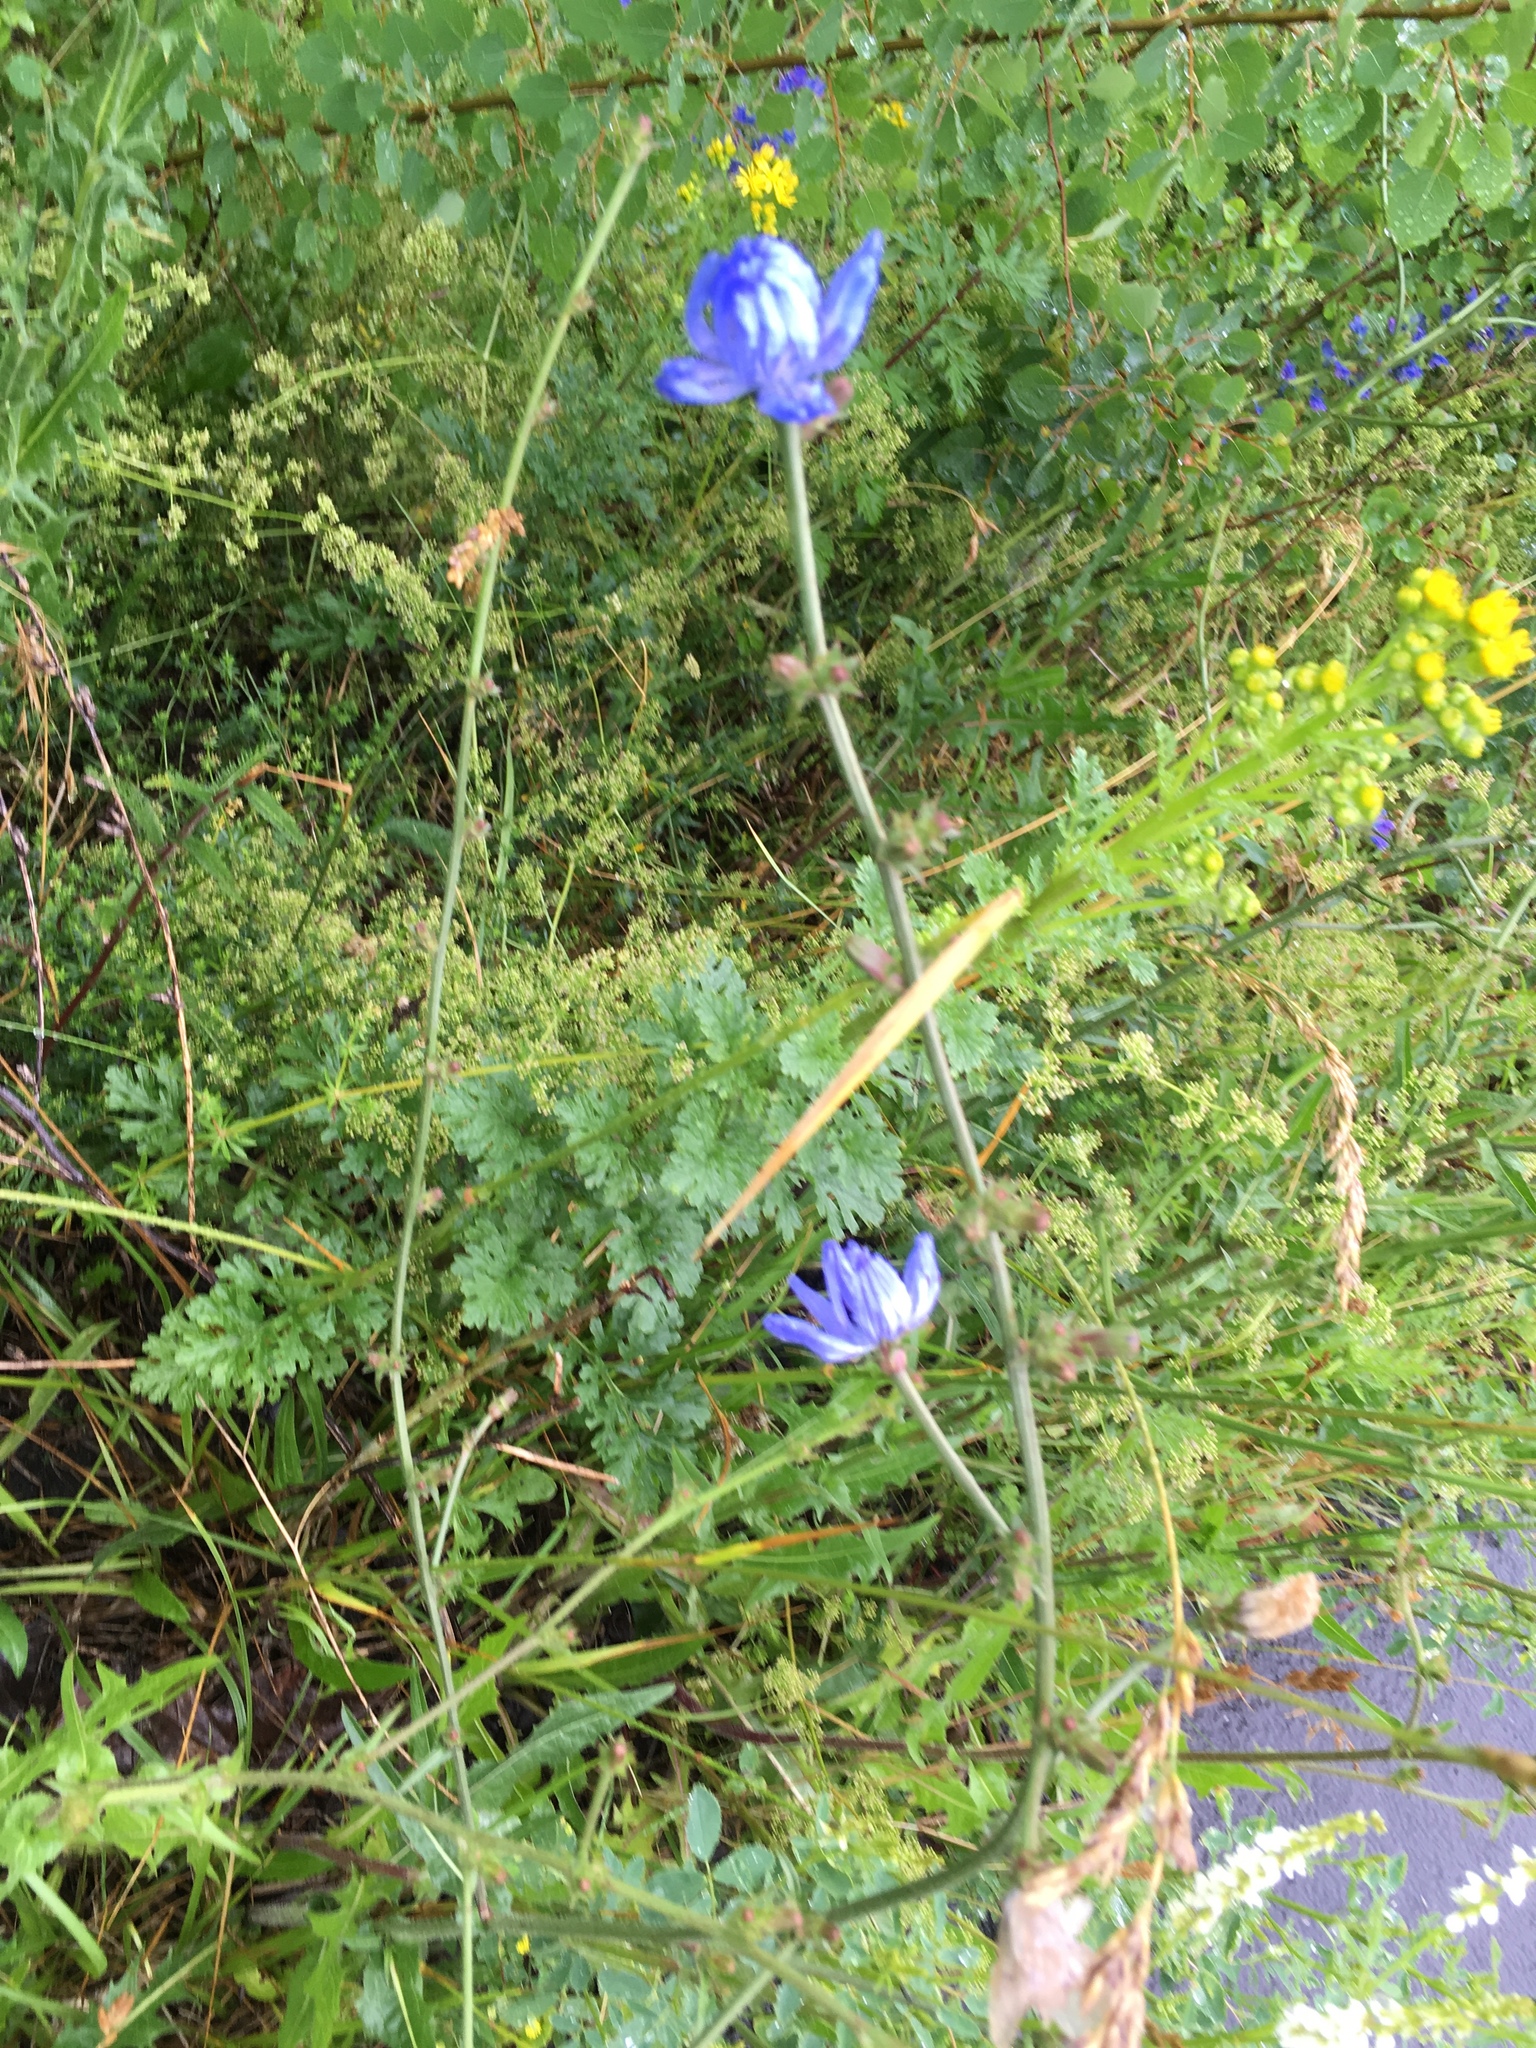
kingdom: Plantae
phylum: Tracheophyta
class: Magnoliopsida
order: Asterales
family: Asteraceae
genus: Cichorium
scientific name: Cichorium intybus
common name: Chicory
